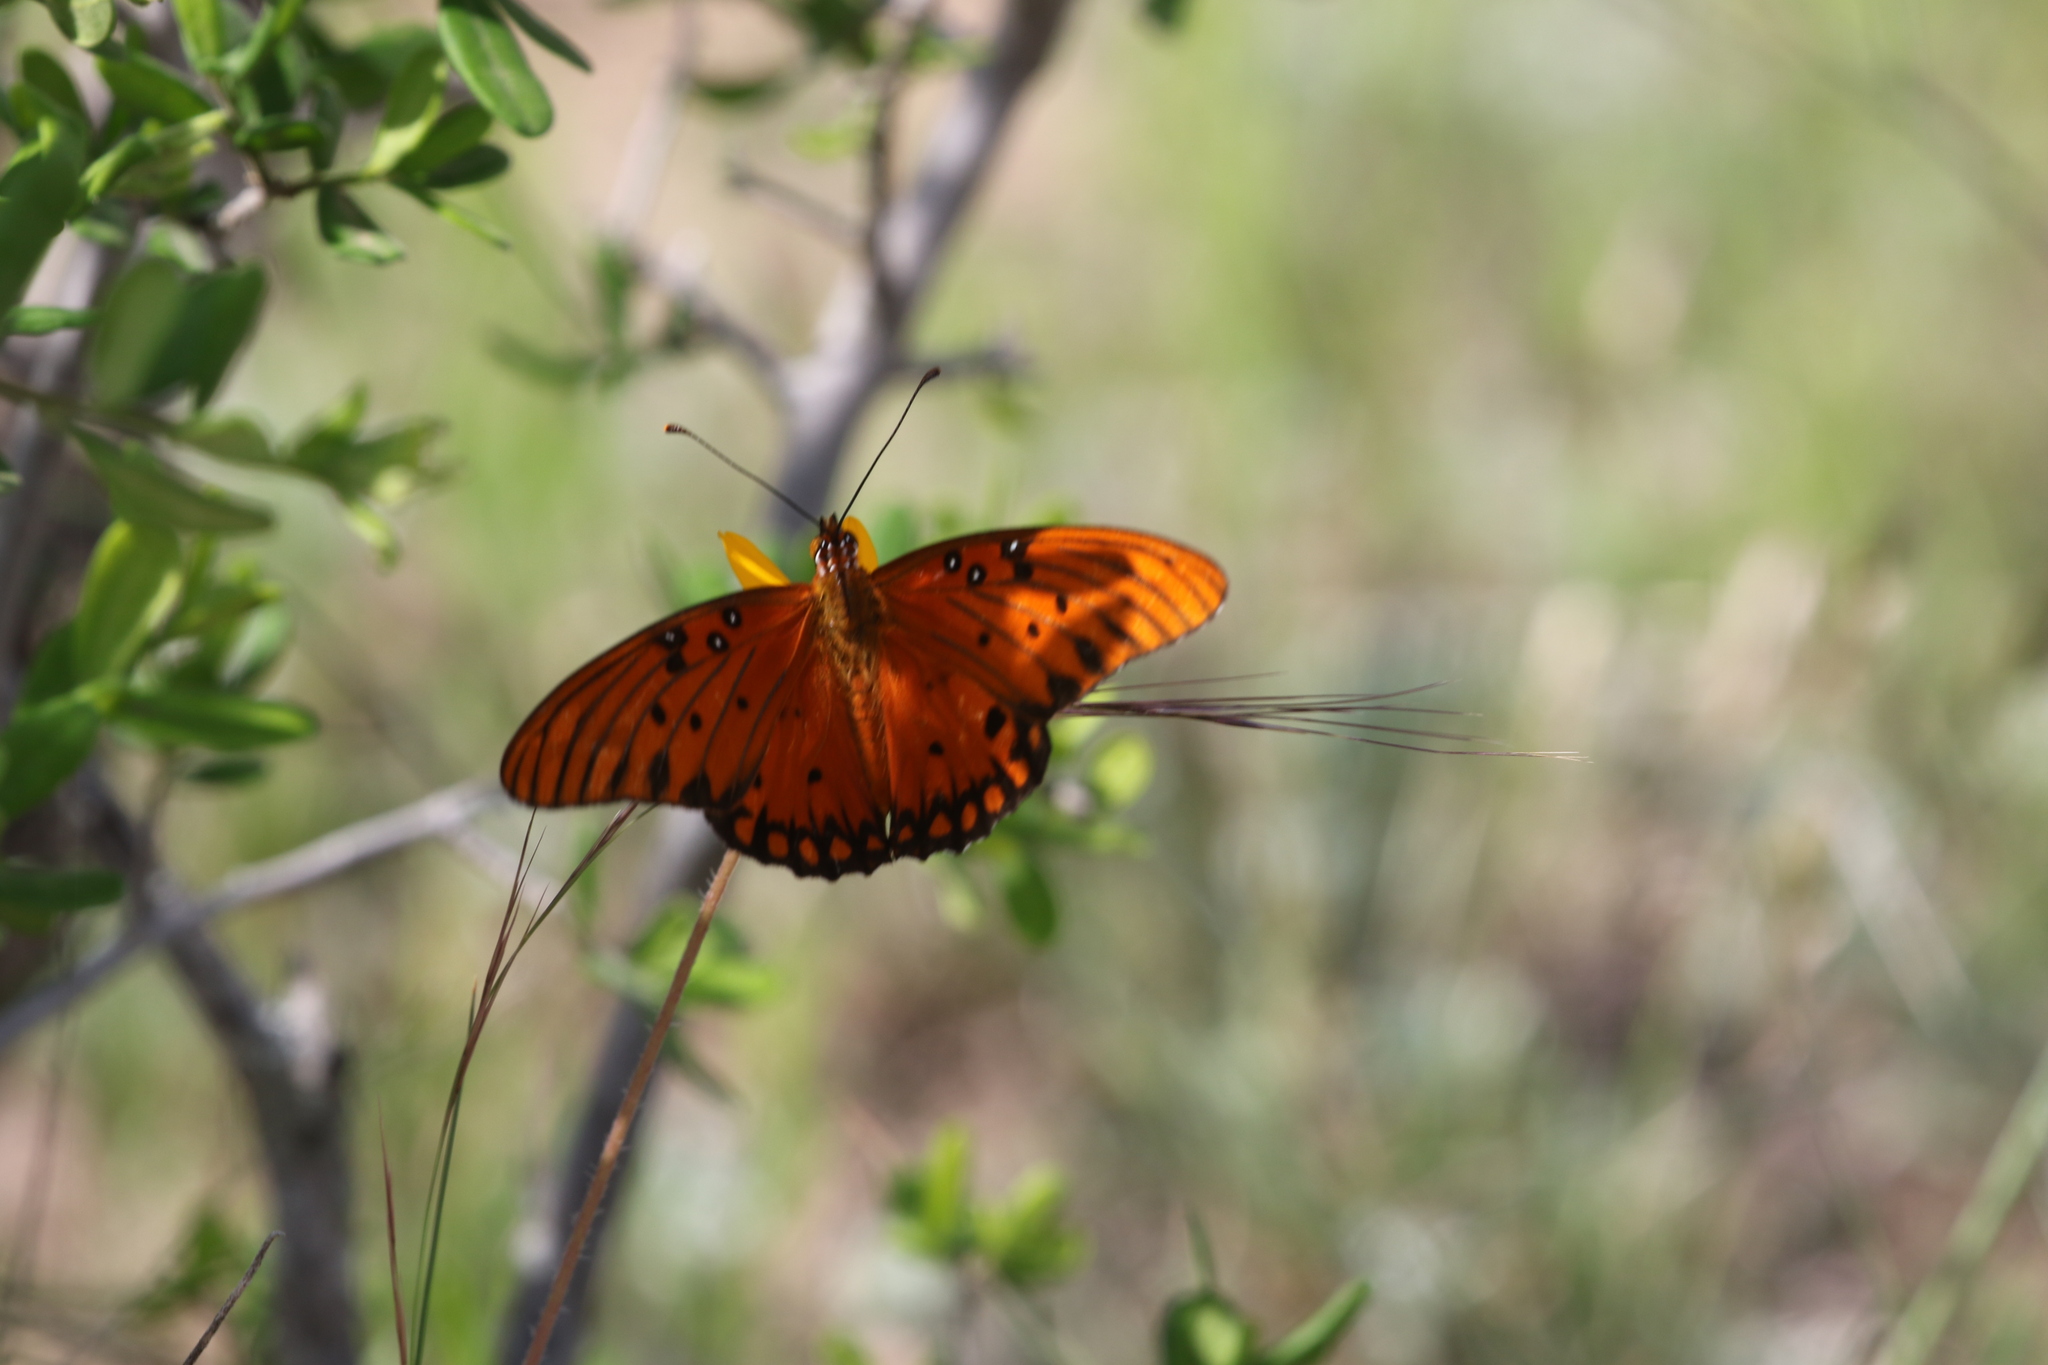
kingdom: Animalia
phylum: Arthropoda
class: Insecta
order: Lepidoptera
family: Nymphalidae
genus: Dione
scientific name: Dione vanillae
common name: Gulf fritillary
